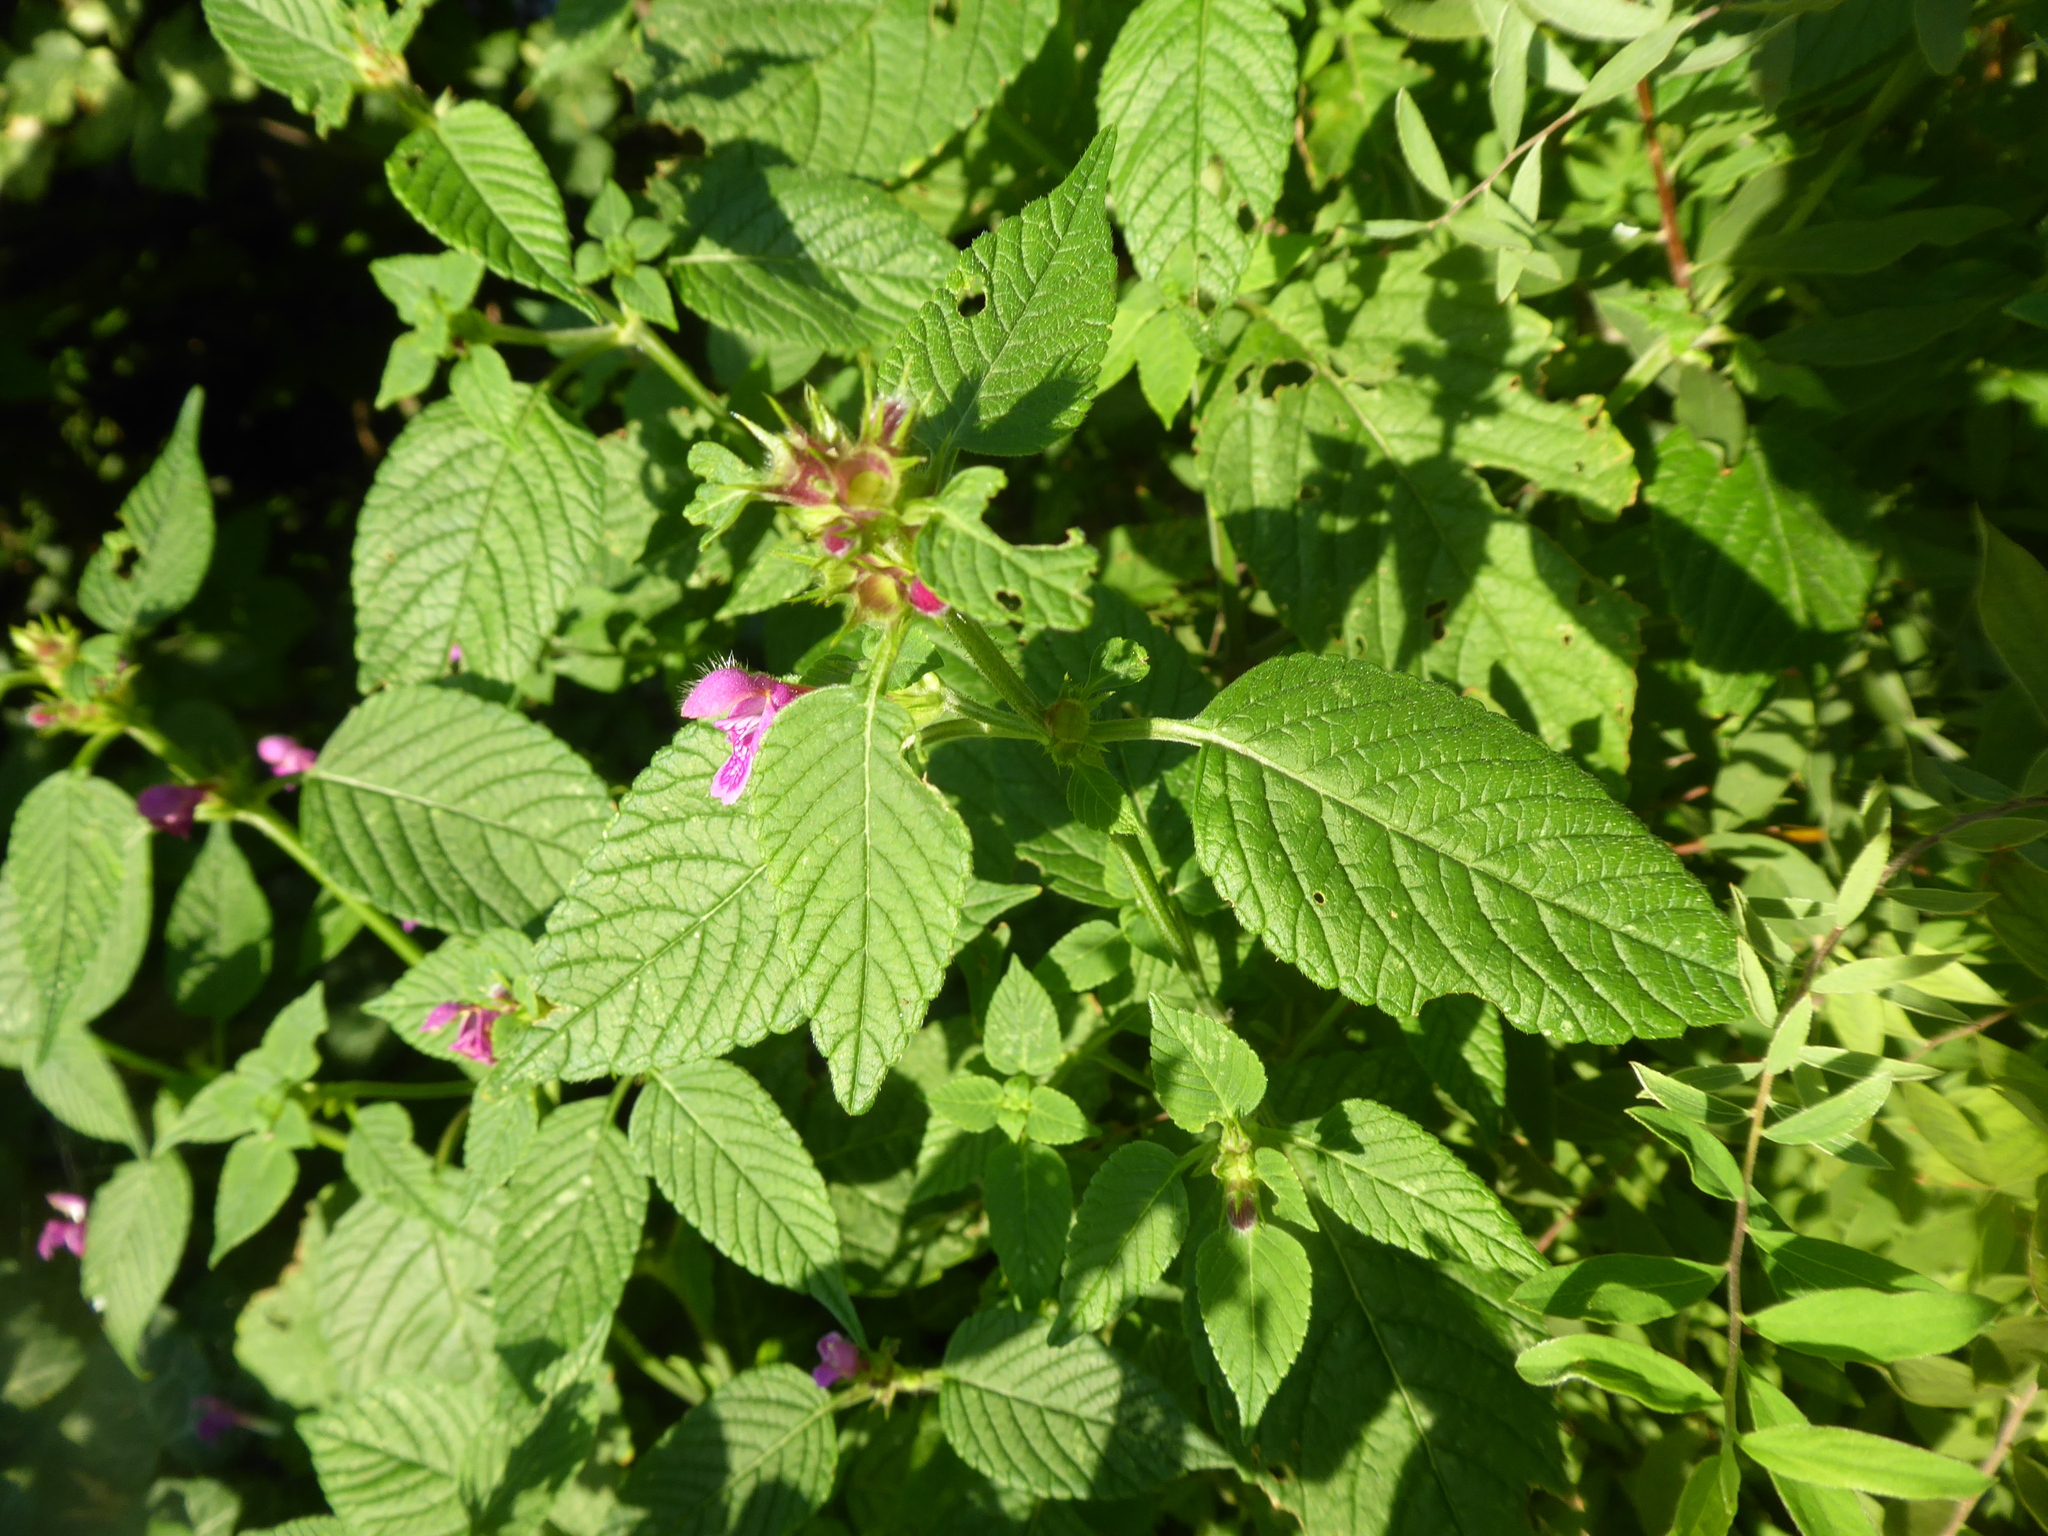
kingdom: Plantae
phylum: Tracheophyta
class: Magnoliopsida
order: Lamiales
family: Lamiaceae
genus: Galeopsis
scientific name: Galeopsis pubescens
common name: Downy hemp-nettle
